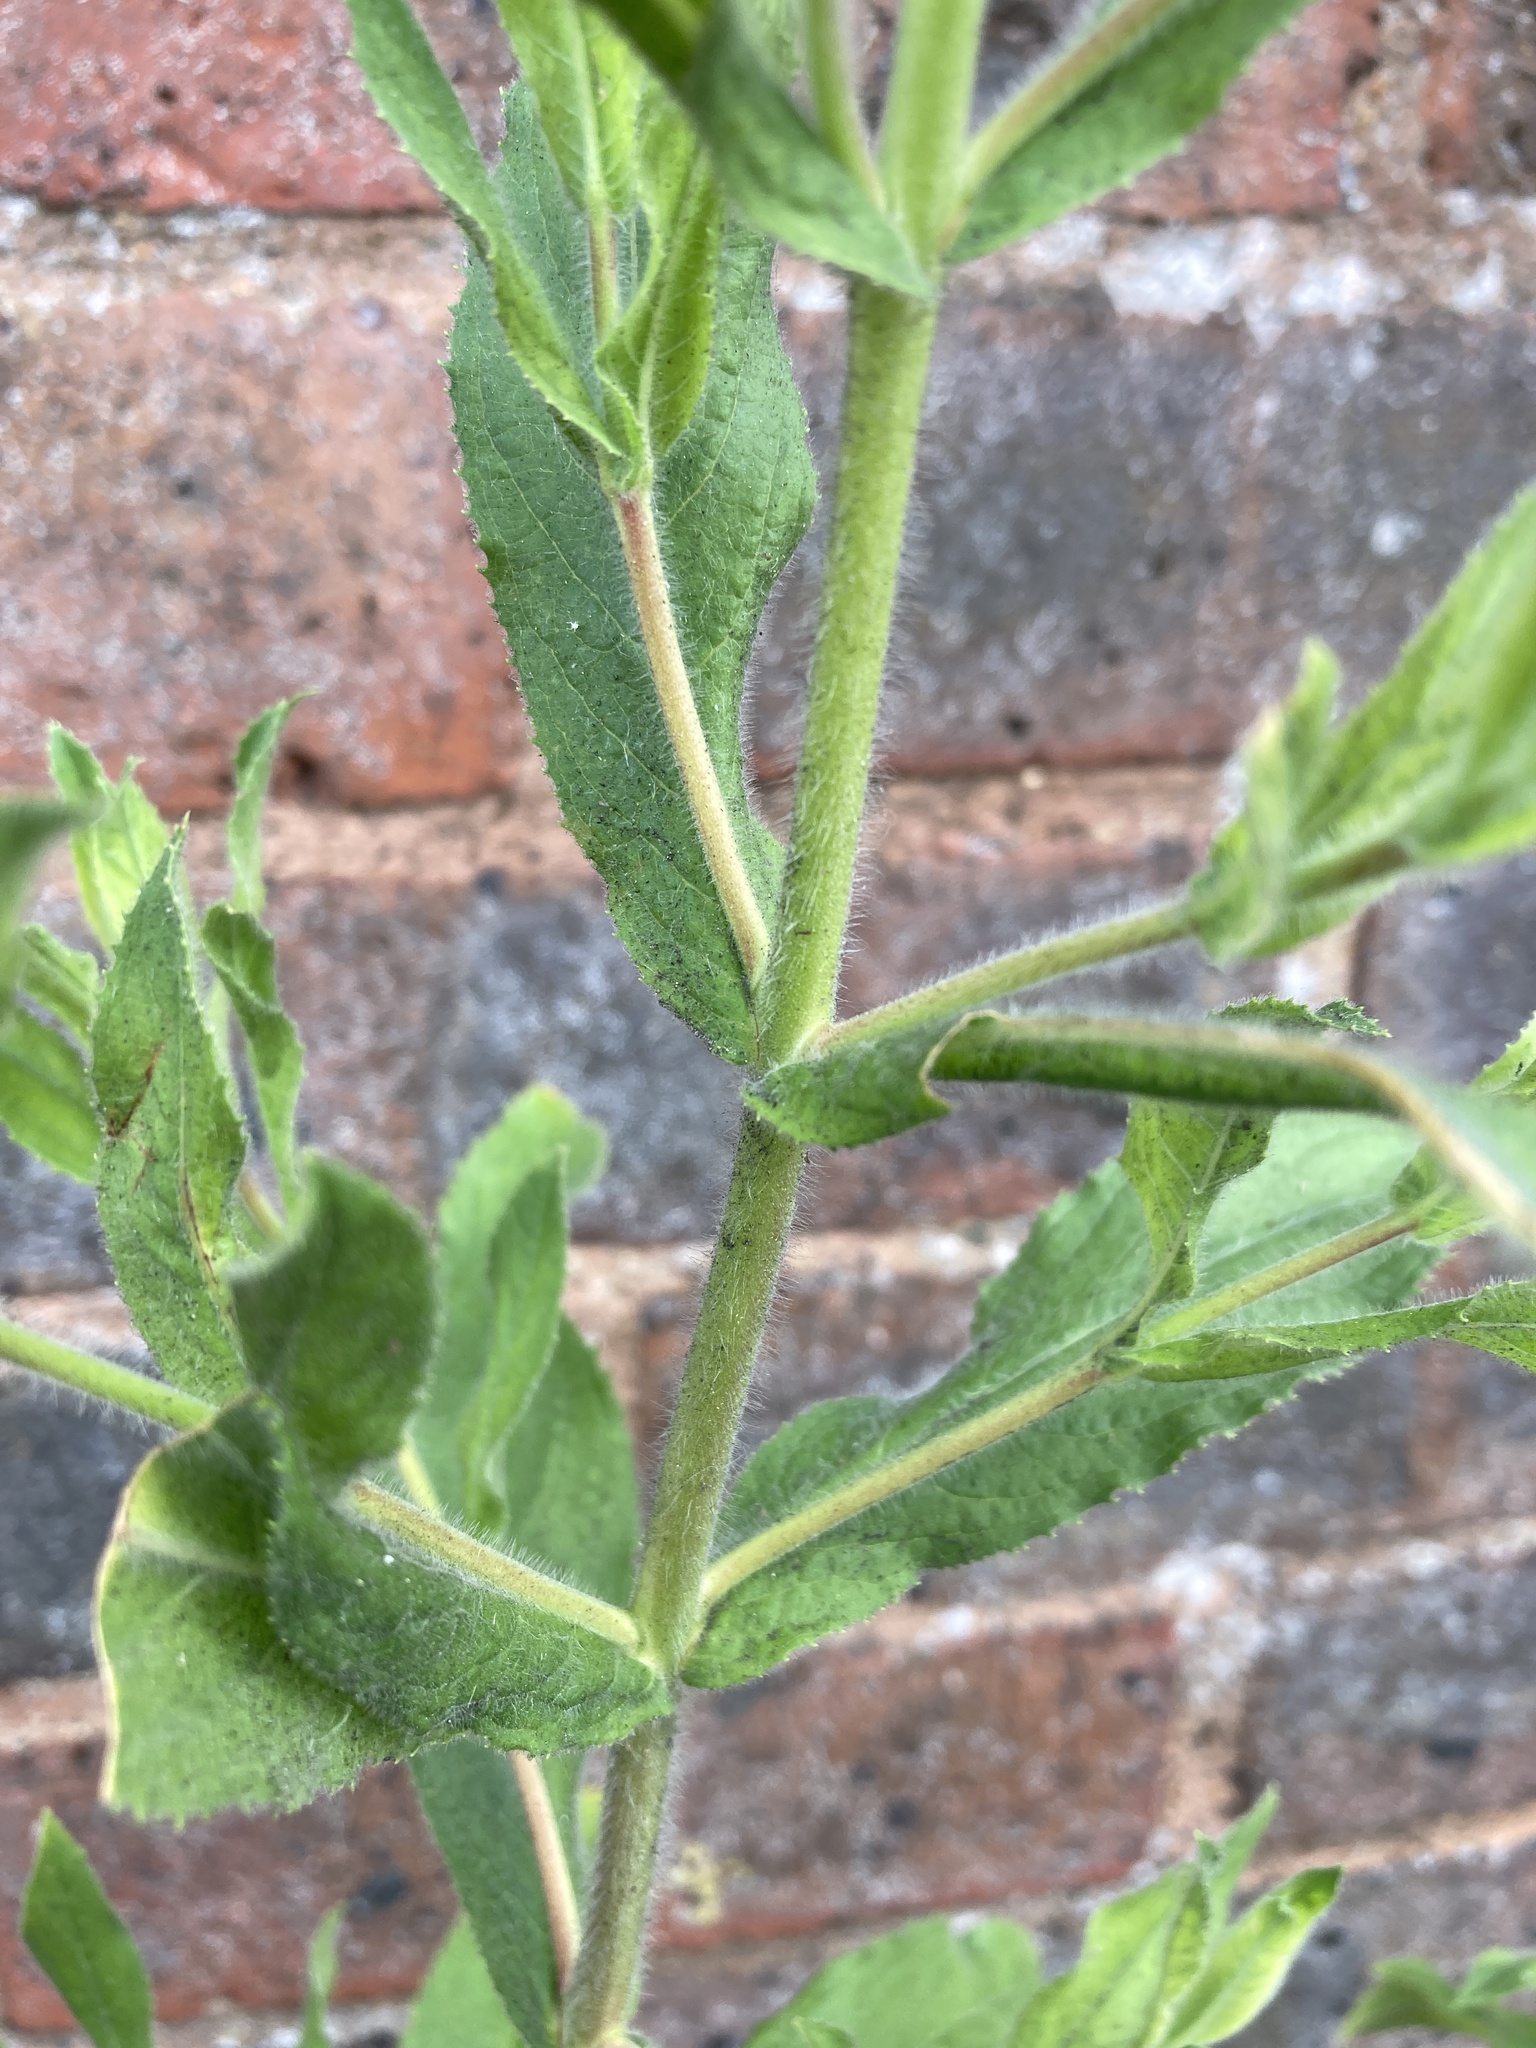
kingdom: Plantae
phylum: Tracheophyta
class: Magnoliopsida
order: Myrtales
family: Onagraceae
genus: Epilobium
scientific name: Epilobium hirsutum
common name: Great willowherb
